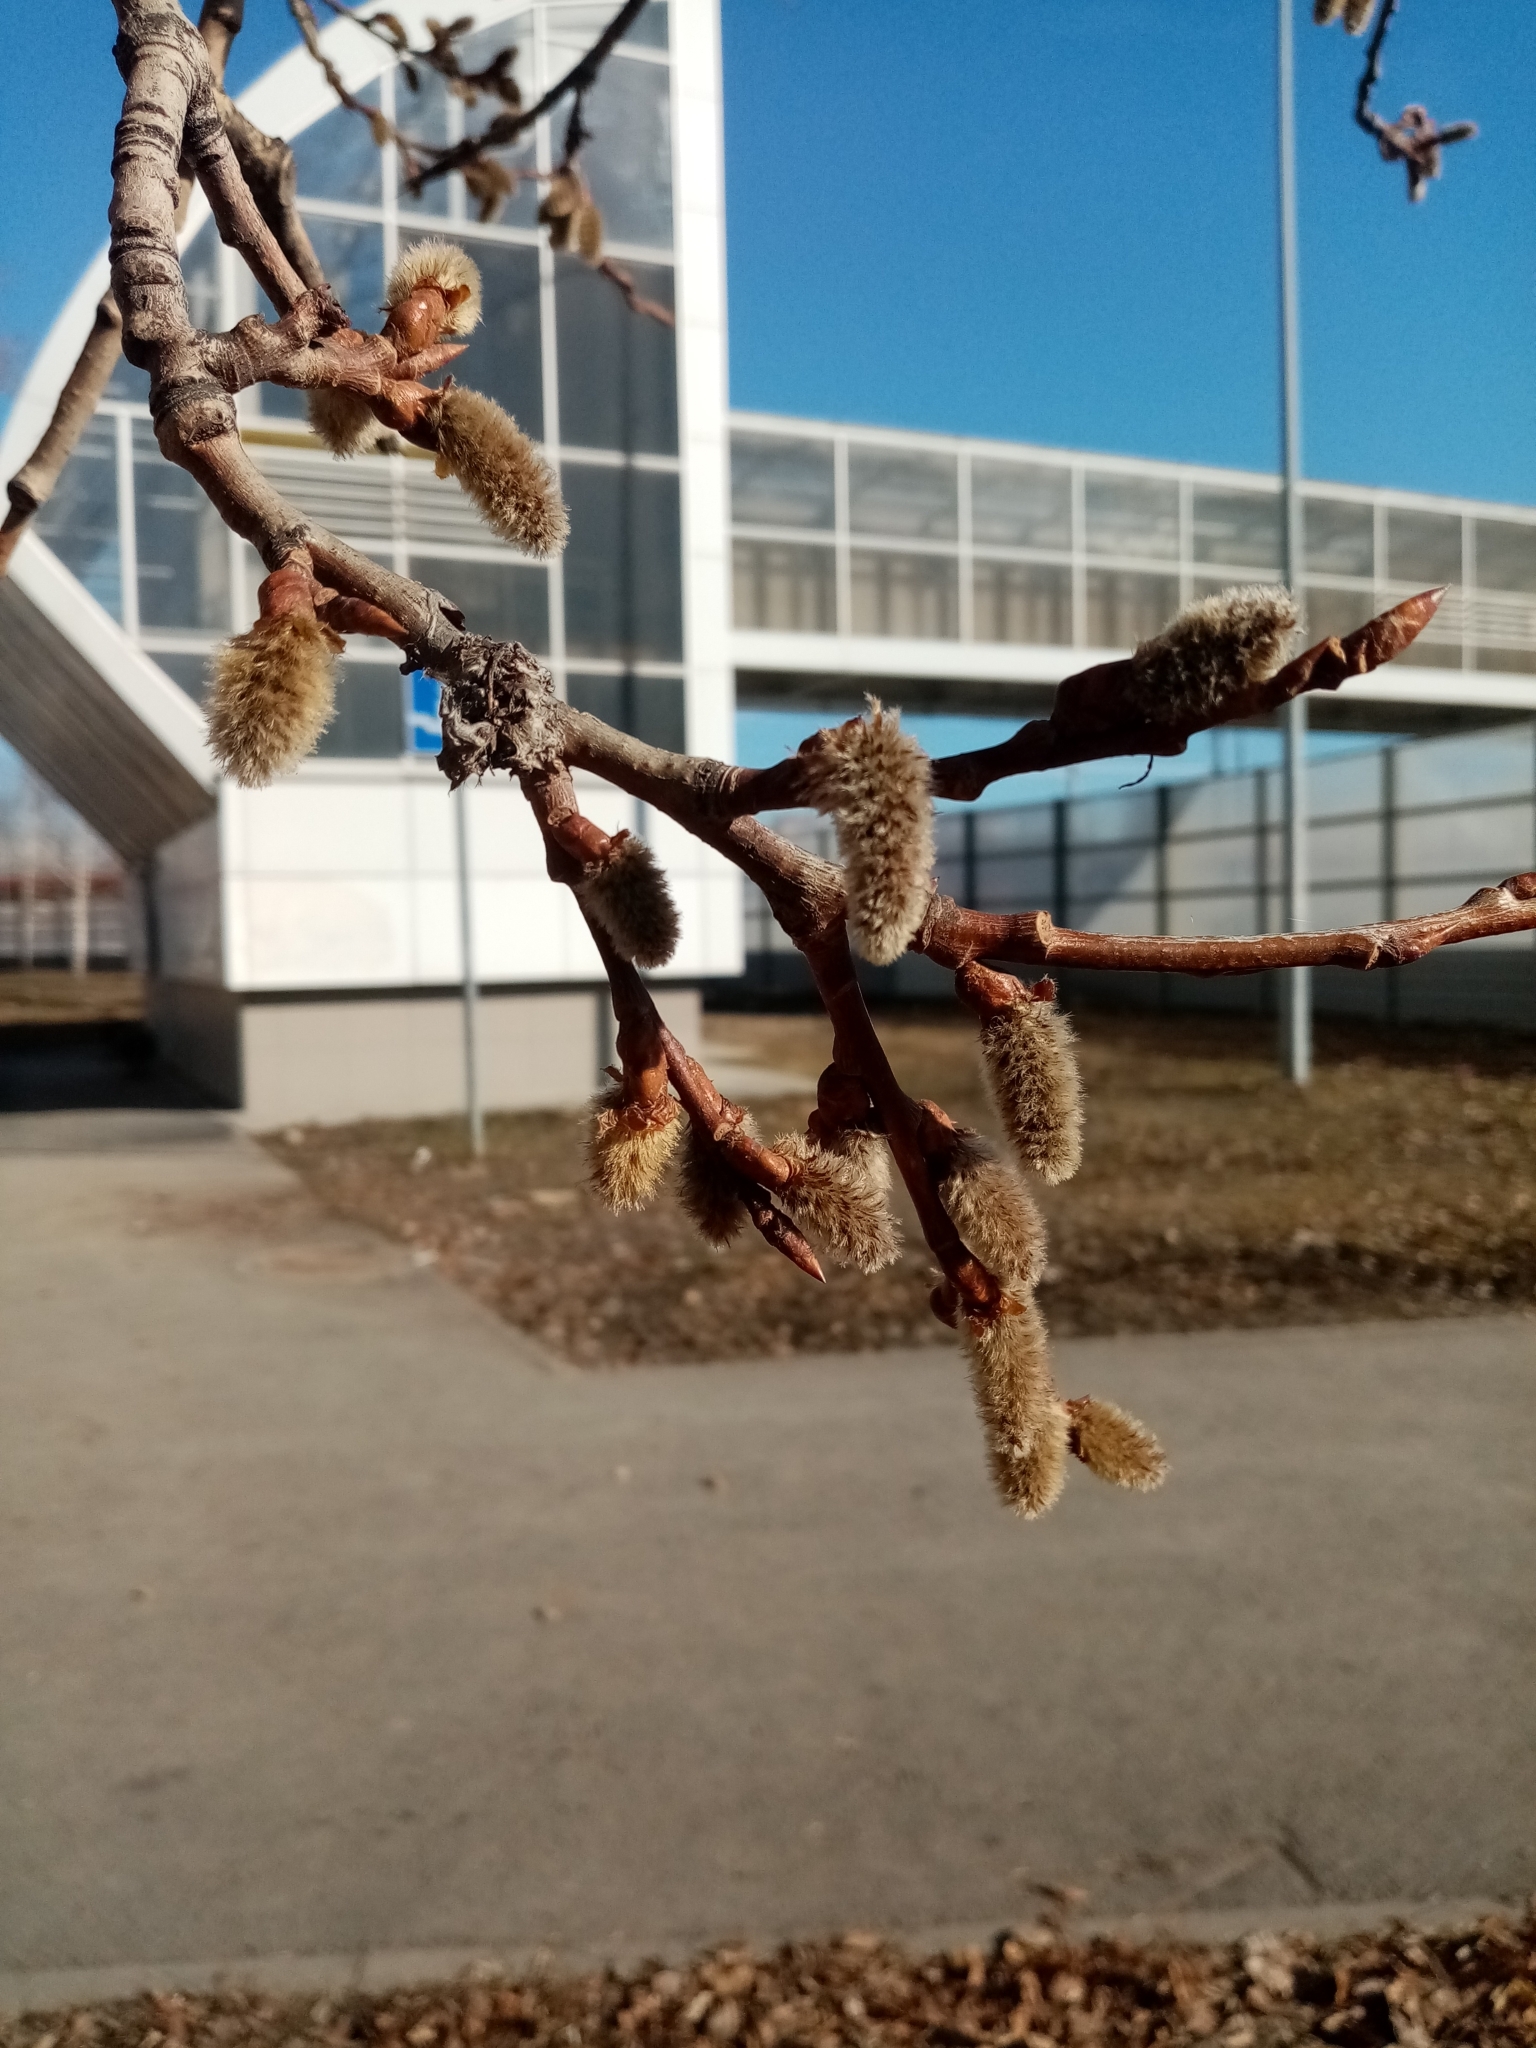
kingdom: Plantae
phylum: Tracheophyta
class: Magnoliopsida
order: Malpighiales
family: Salicaceae
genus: Populus
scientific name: Populus tremula
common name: European aspen
